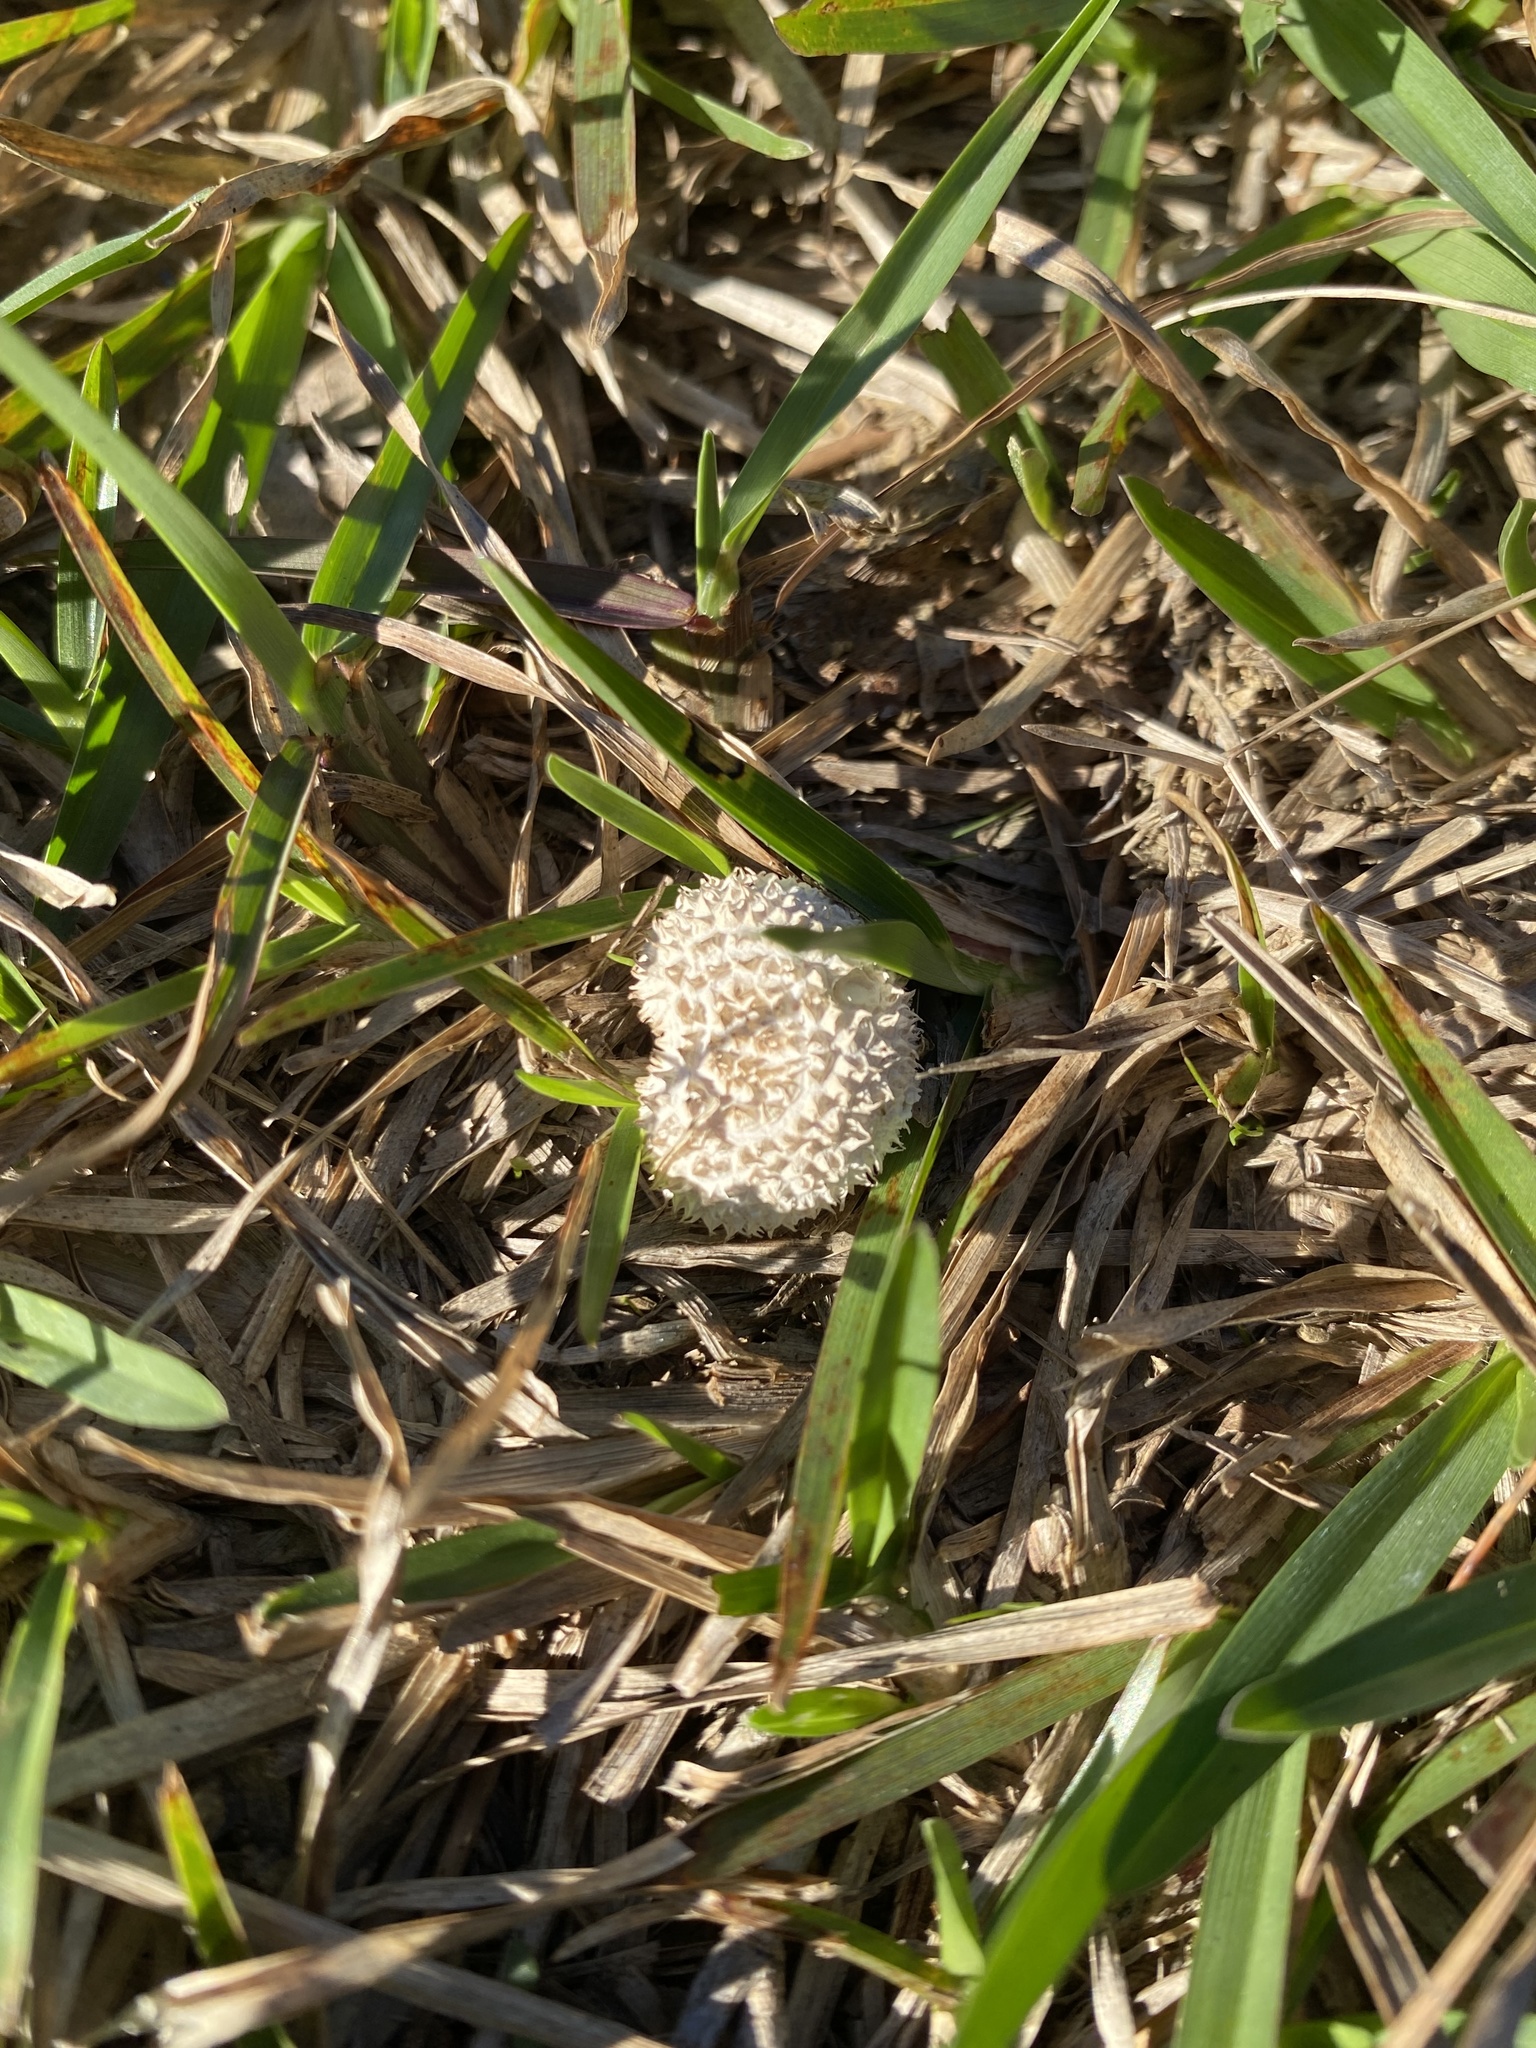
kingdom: Fungi
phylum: Basidiomycota
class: Agaricomycetes
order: Agaricales
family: Agaricaceae
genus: Lycoperdon
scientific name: Lycoperdon marginatum
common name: Peeling puffball
